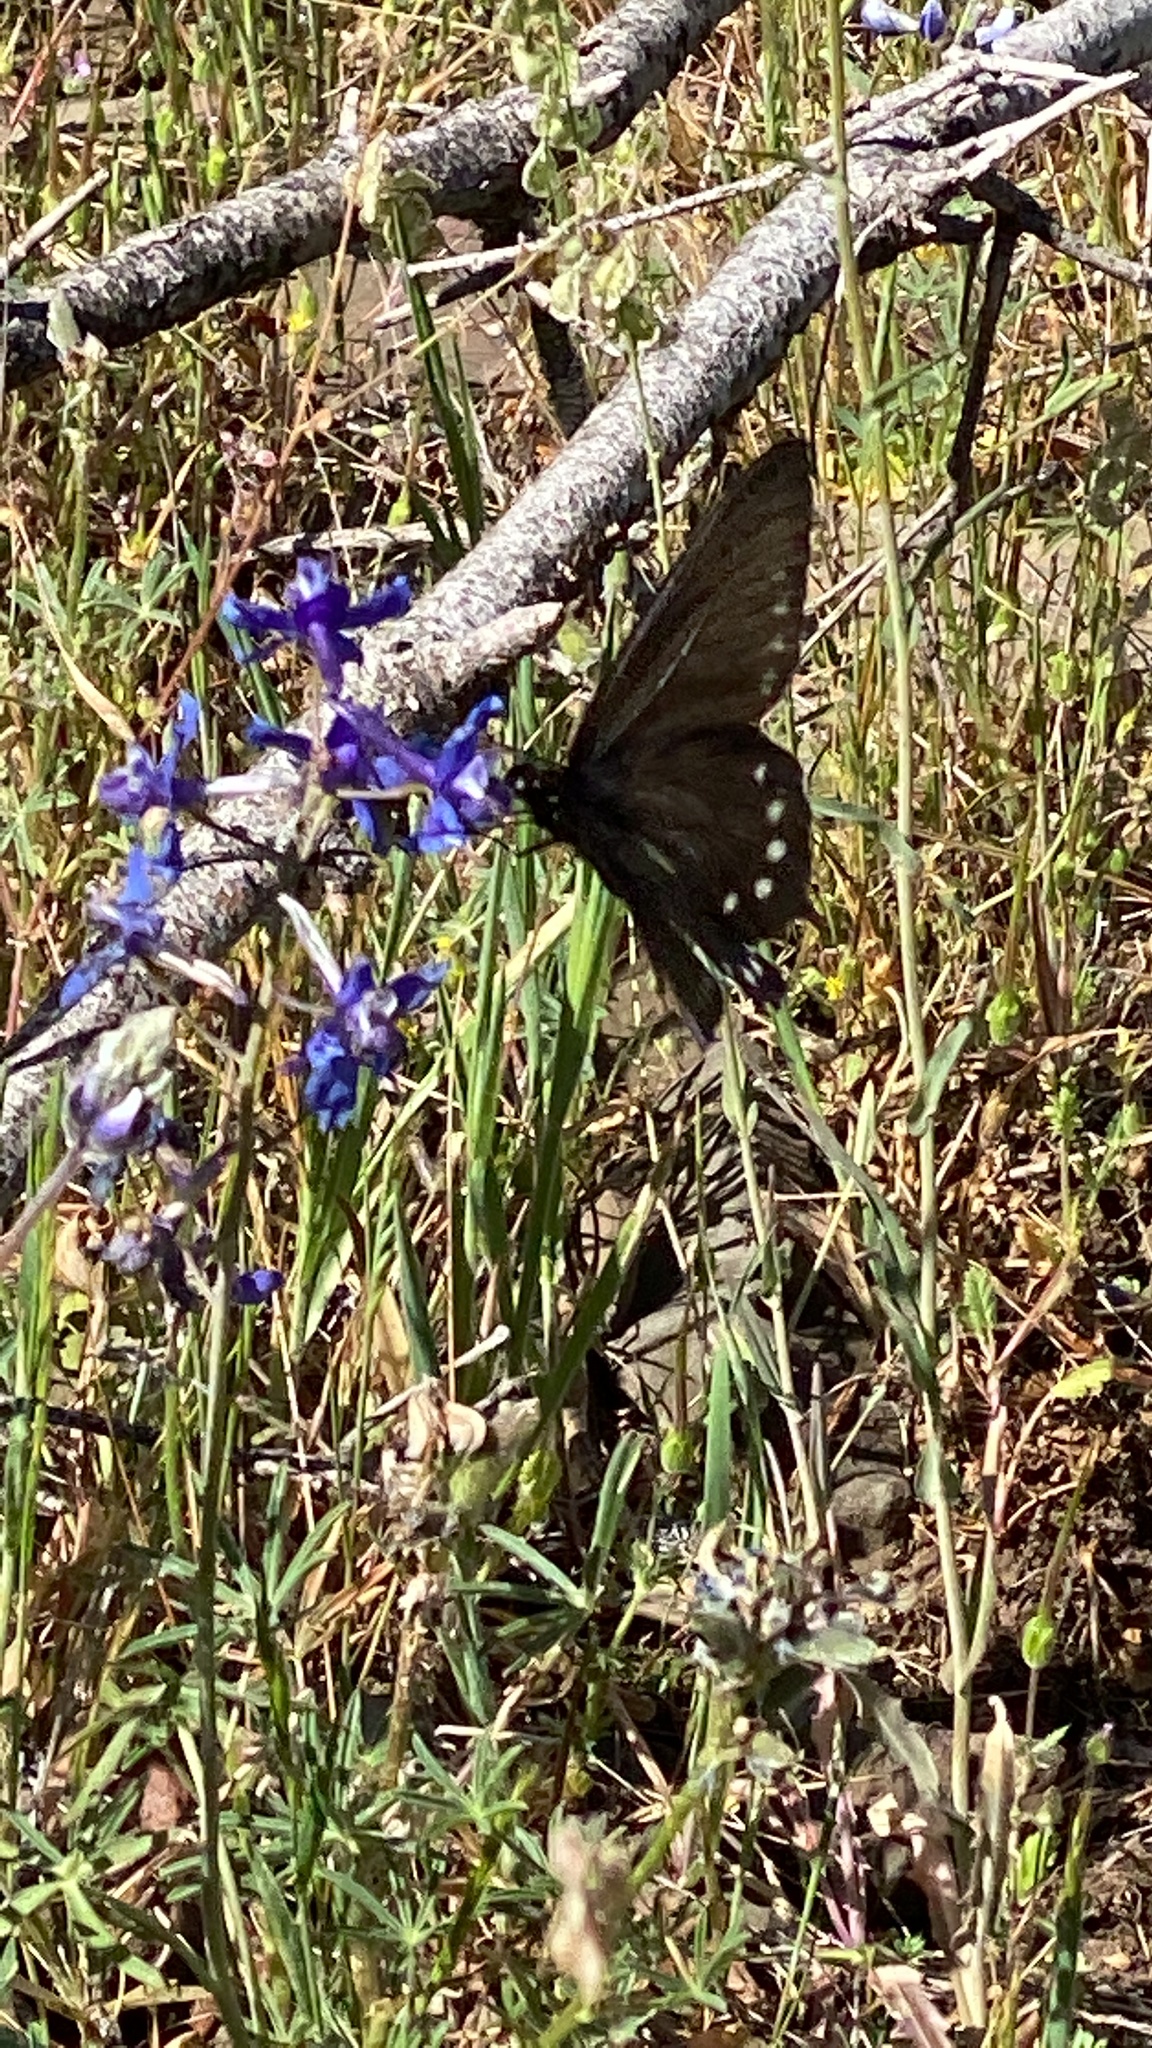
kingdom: Animalia
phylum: Arthropoda
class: Insecta
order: Lepidoptera
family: Papilionidae
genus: Battus
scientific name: Battus philenor
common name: Pipevine swallowtail
